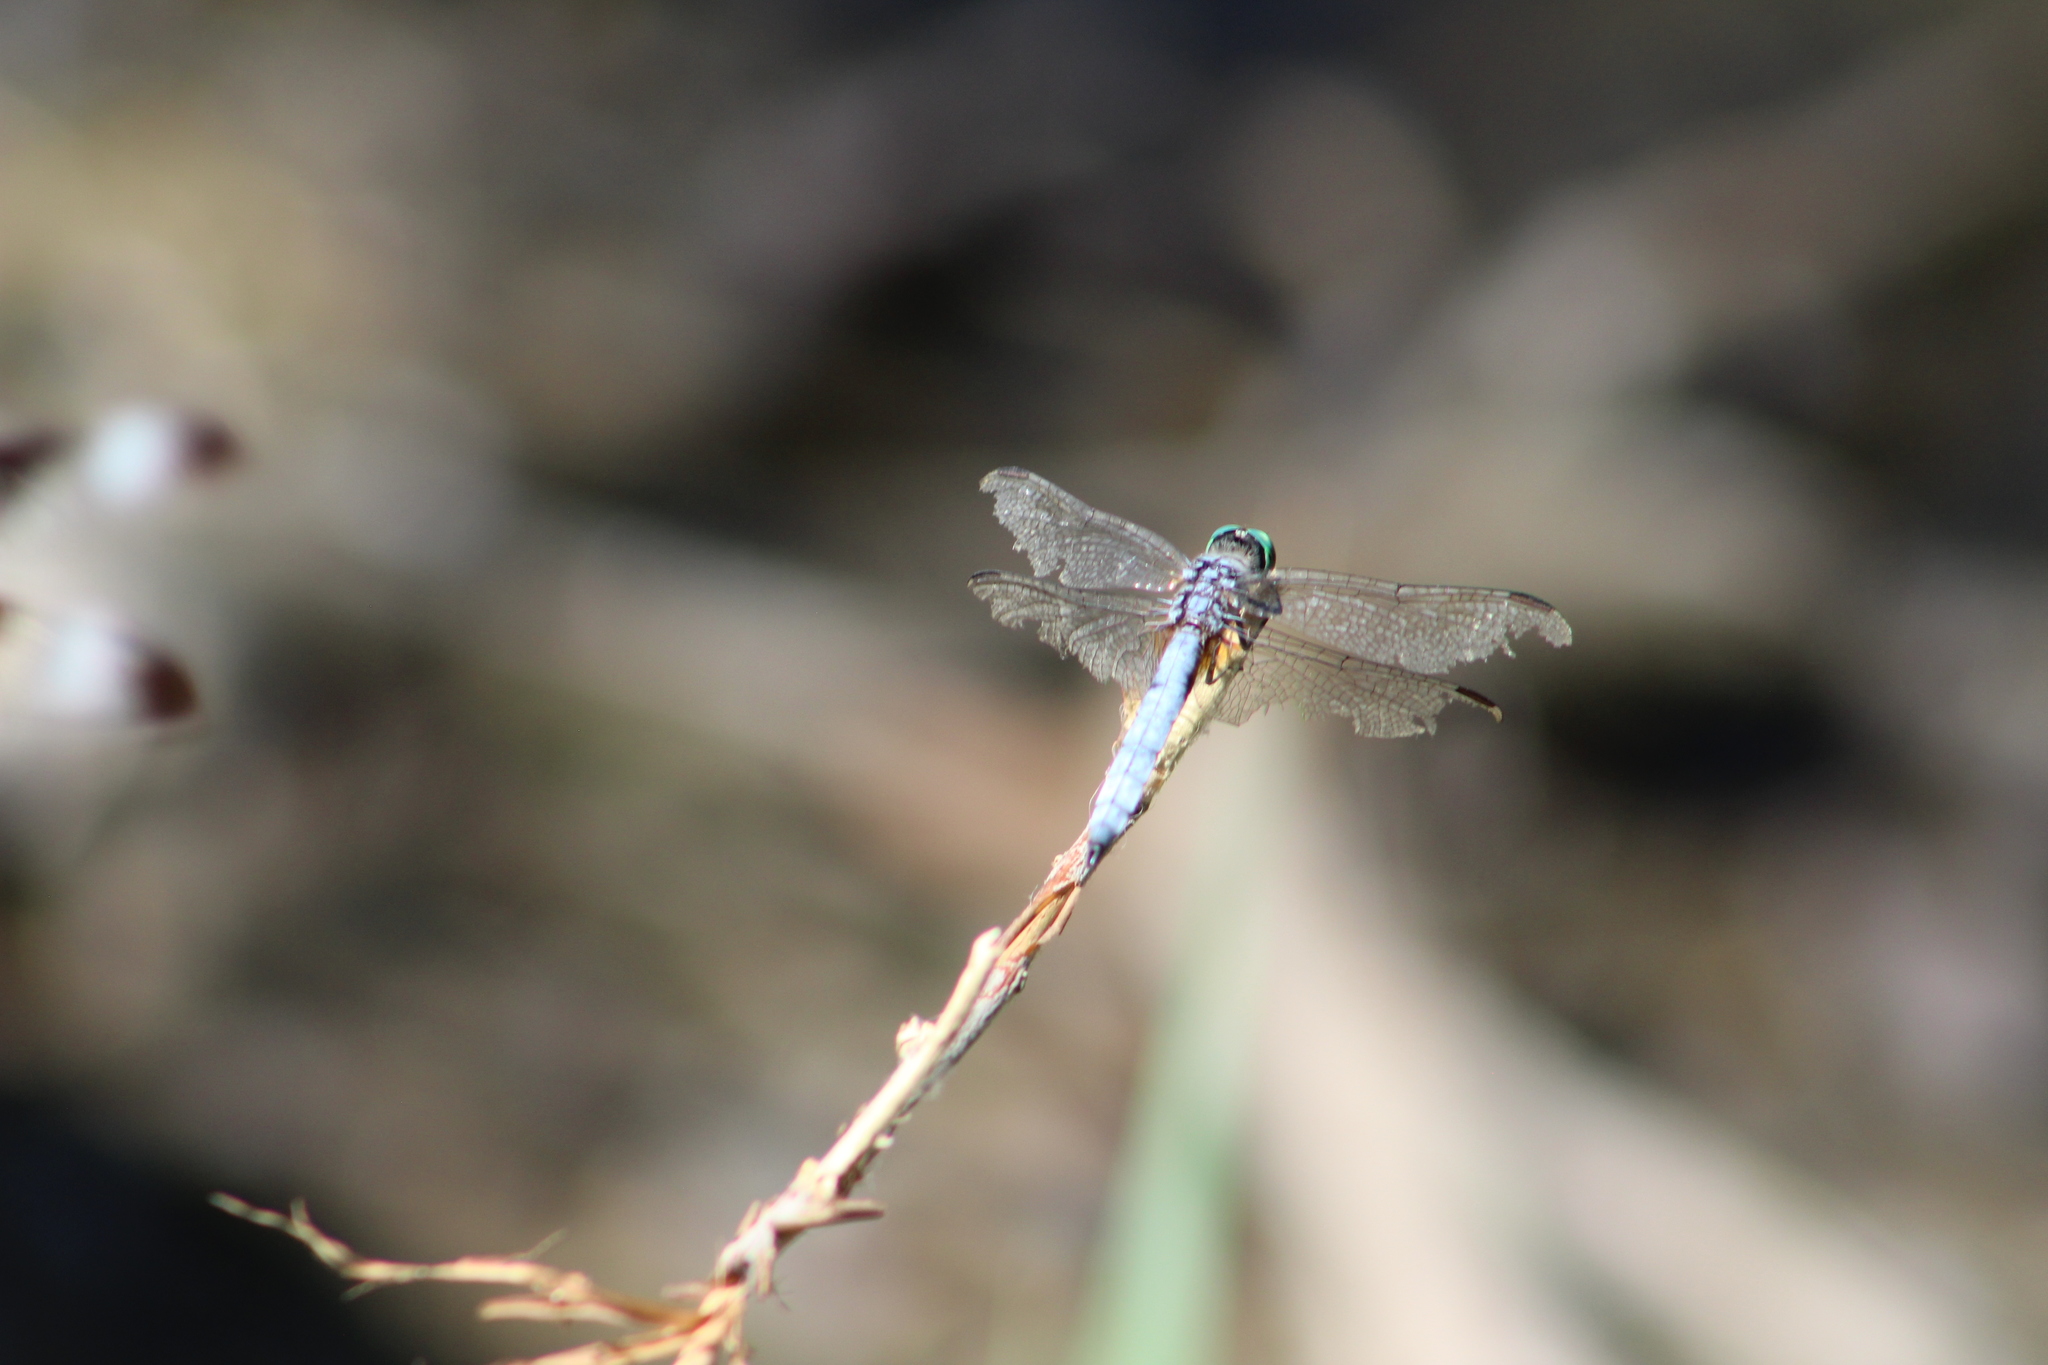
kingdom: Animalia
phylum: Arthropoda
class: Insecta
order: Odonata
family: Libellulidae
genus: Pachydiplax
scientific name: Pachydiplax longipennis
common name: Blue dasher
